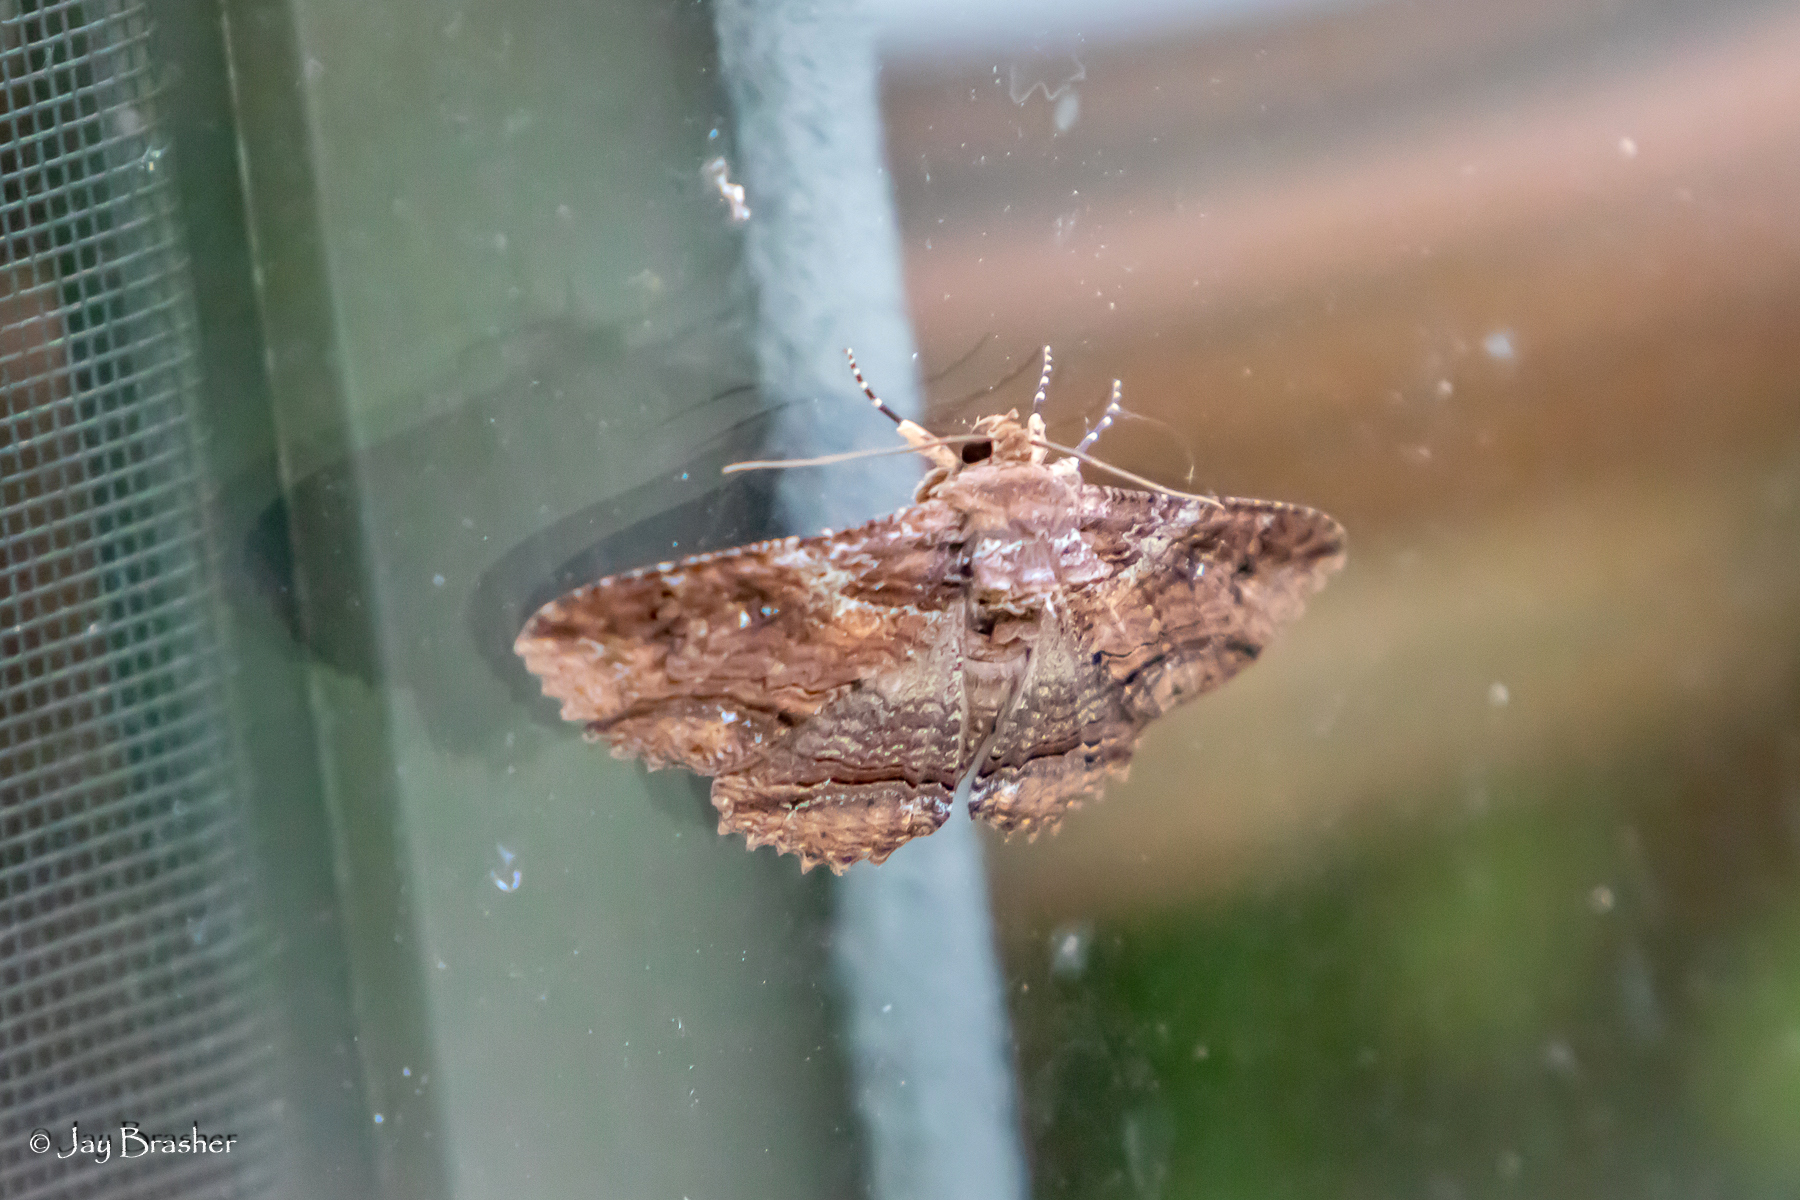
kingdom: Animalia
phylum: Arthropoda
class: Insecta
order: Lepidoptera
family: Erebidae
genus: Zale
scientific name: Zale lunata
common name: Lunate zale moth
